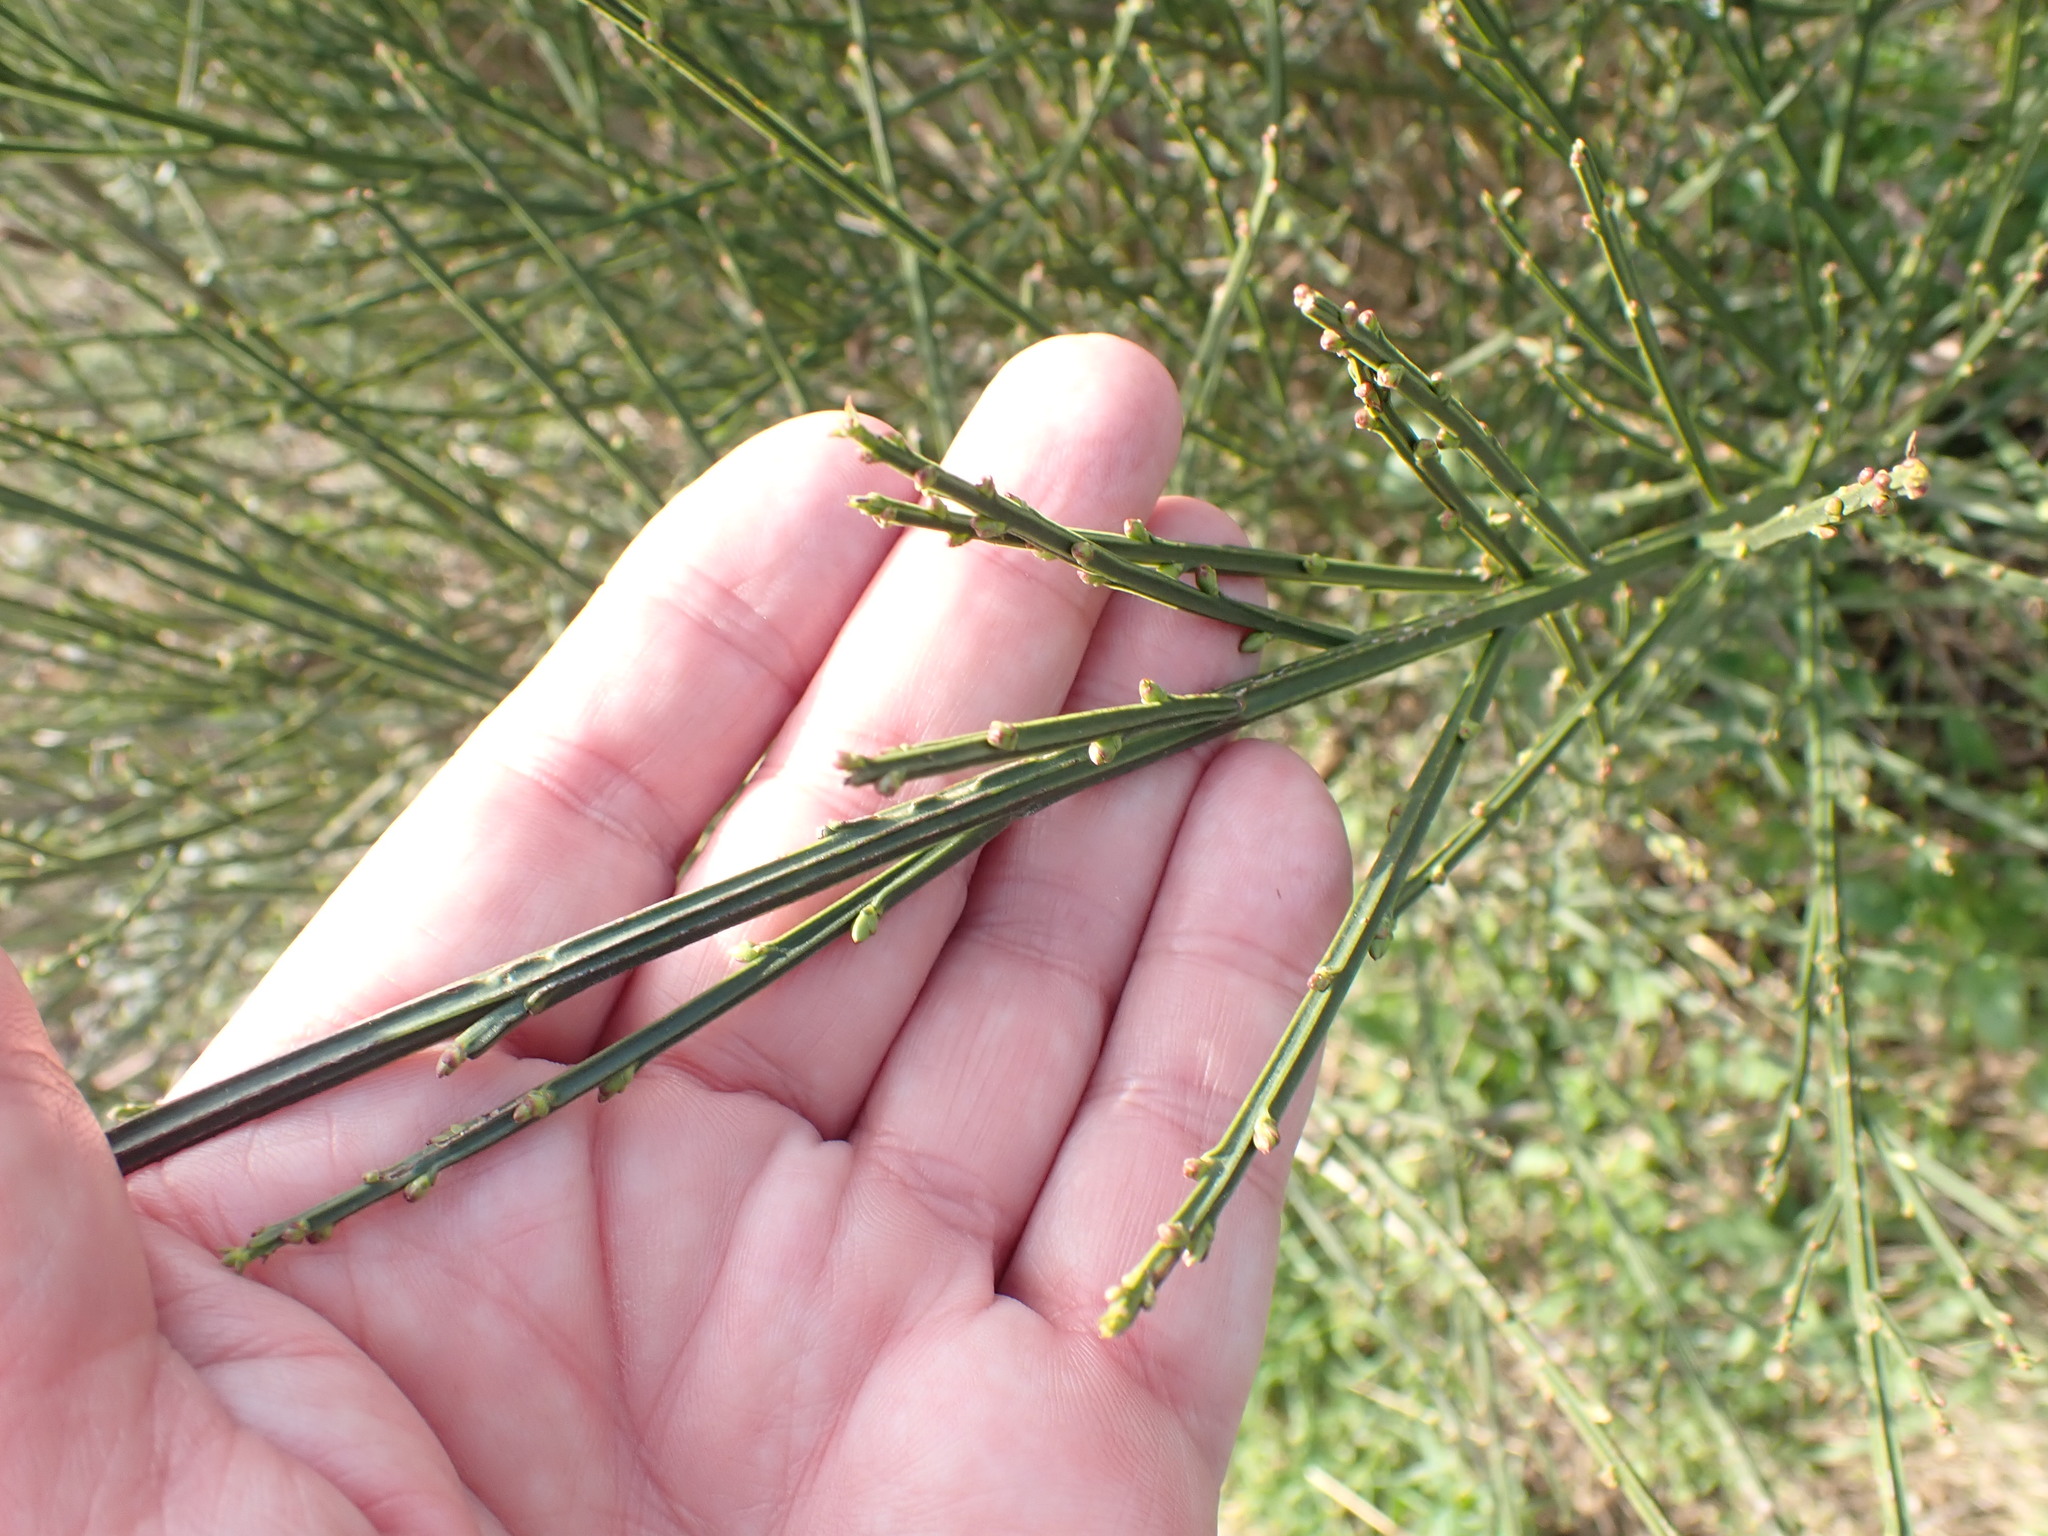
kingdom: Plantae
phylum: Tracheophyta
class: Magnoliopsida
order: Fabales
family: Fabaceae
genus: Cytisus
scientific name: Cytisus scoparius
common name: Scotch broom
